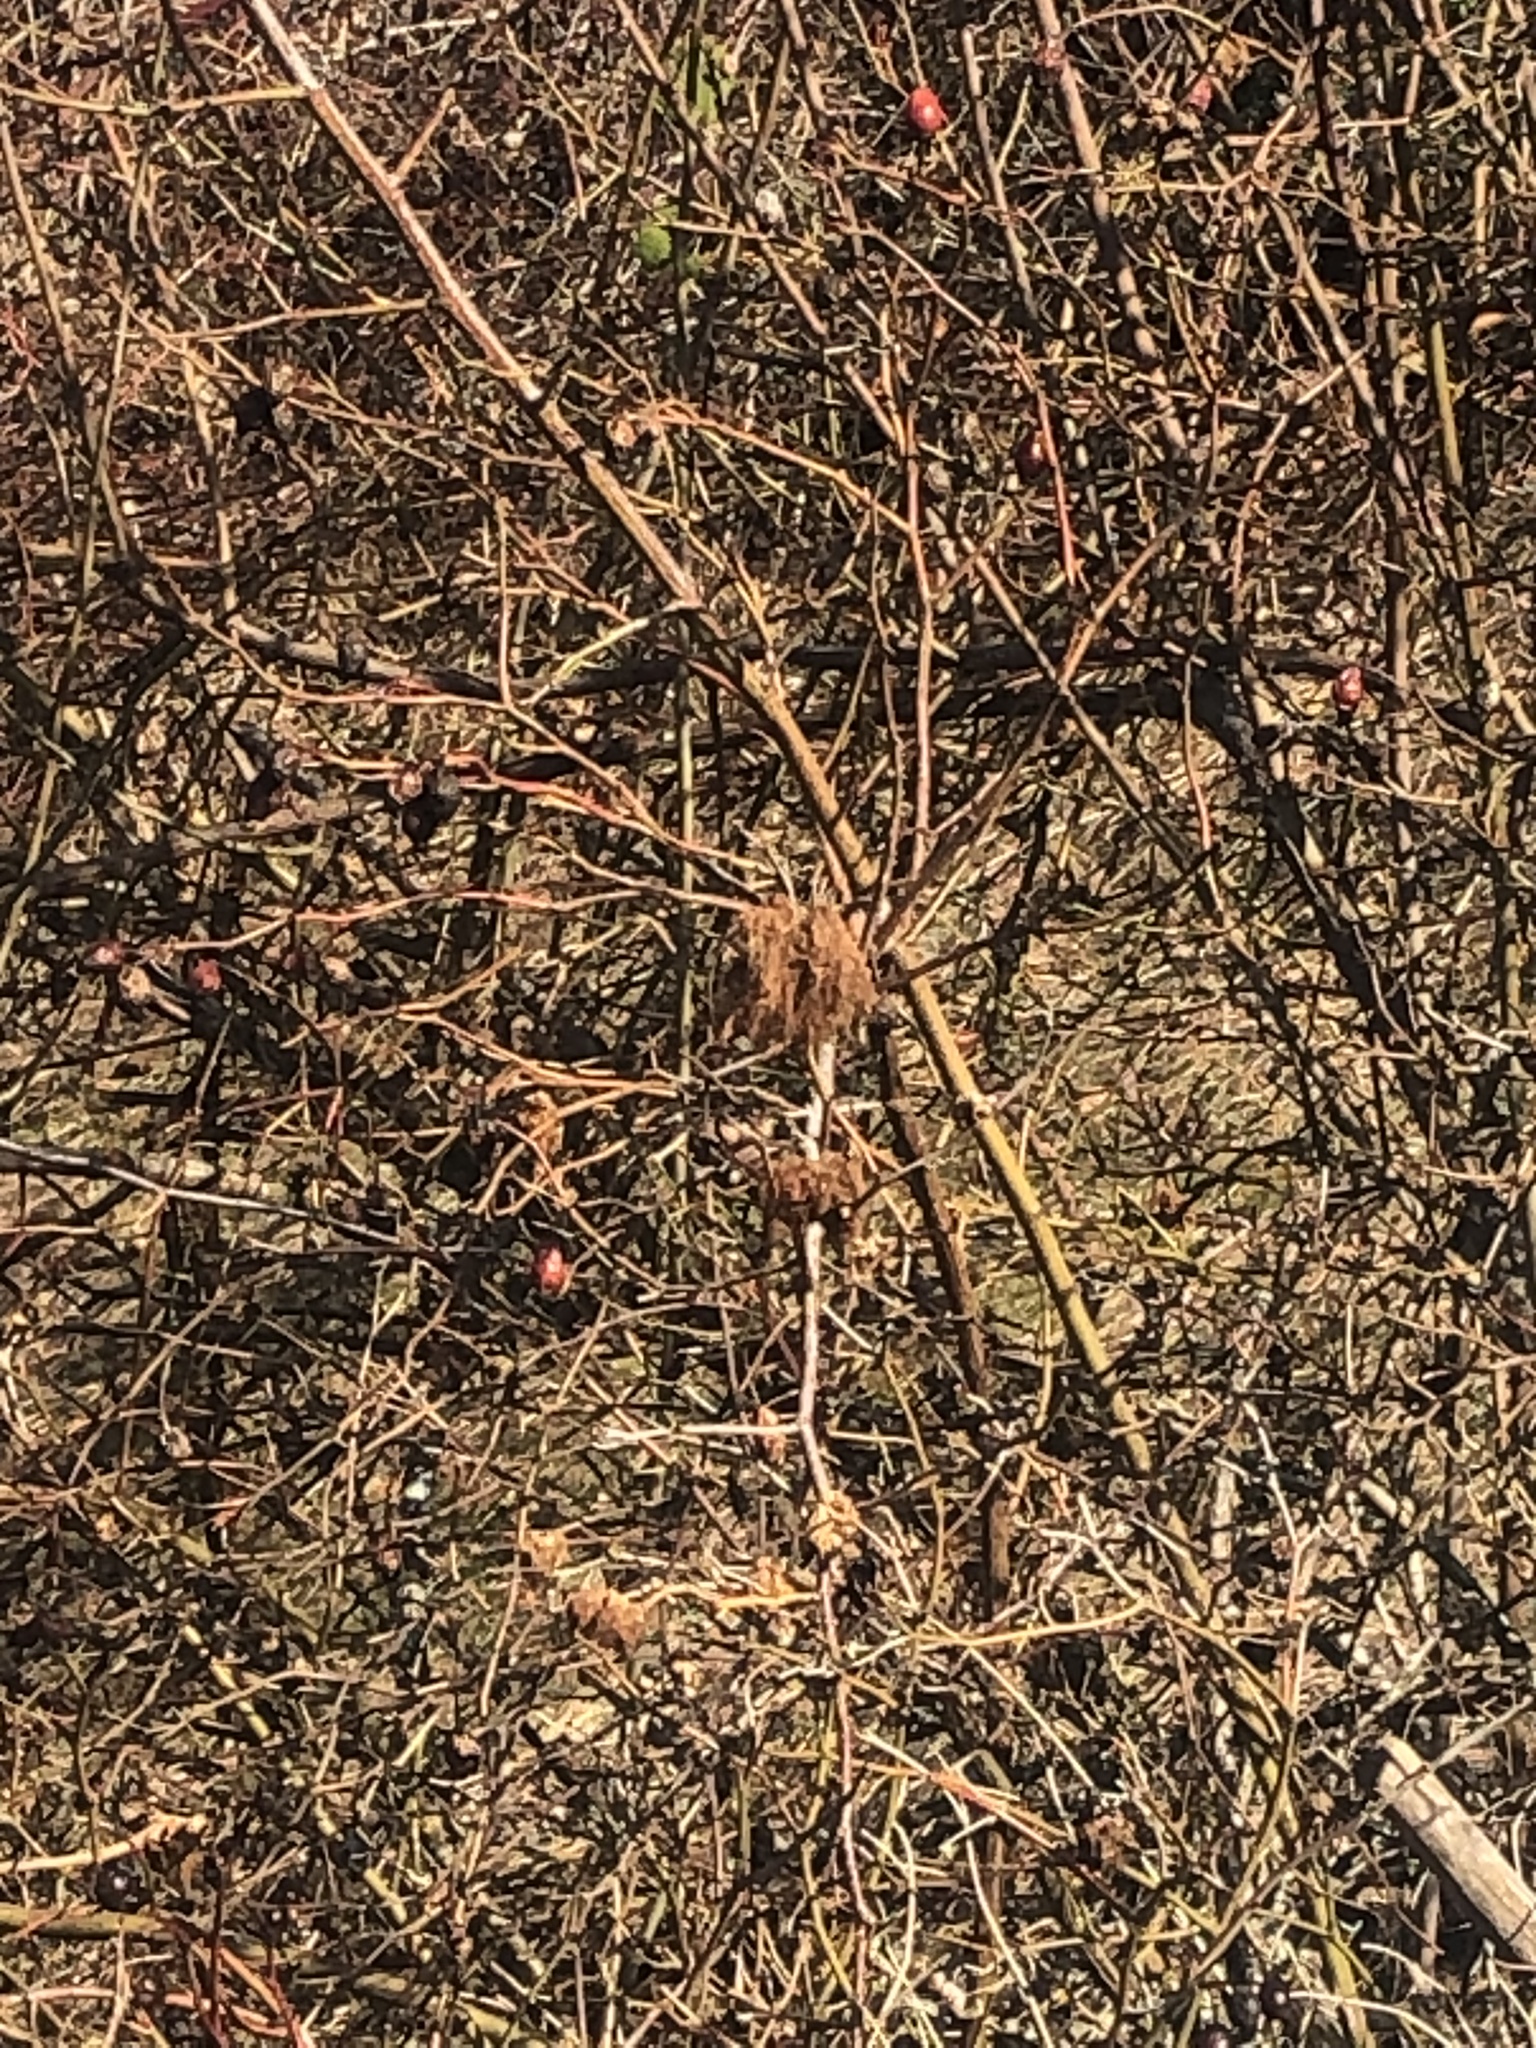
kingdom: Animalia
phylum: Arthropoda
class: Insecta
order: Hymenoptera
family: Cynipidae
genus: Diplolepis
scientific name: Diplolepis rosae
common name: Bedeguar gall
